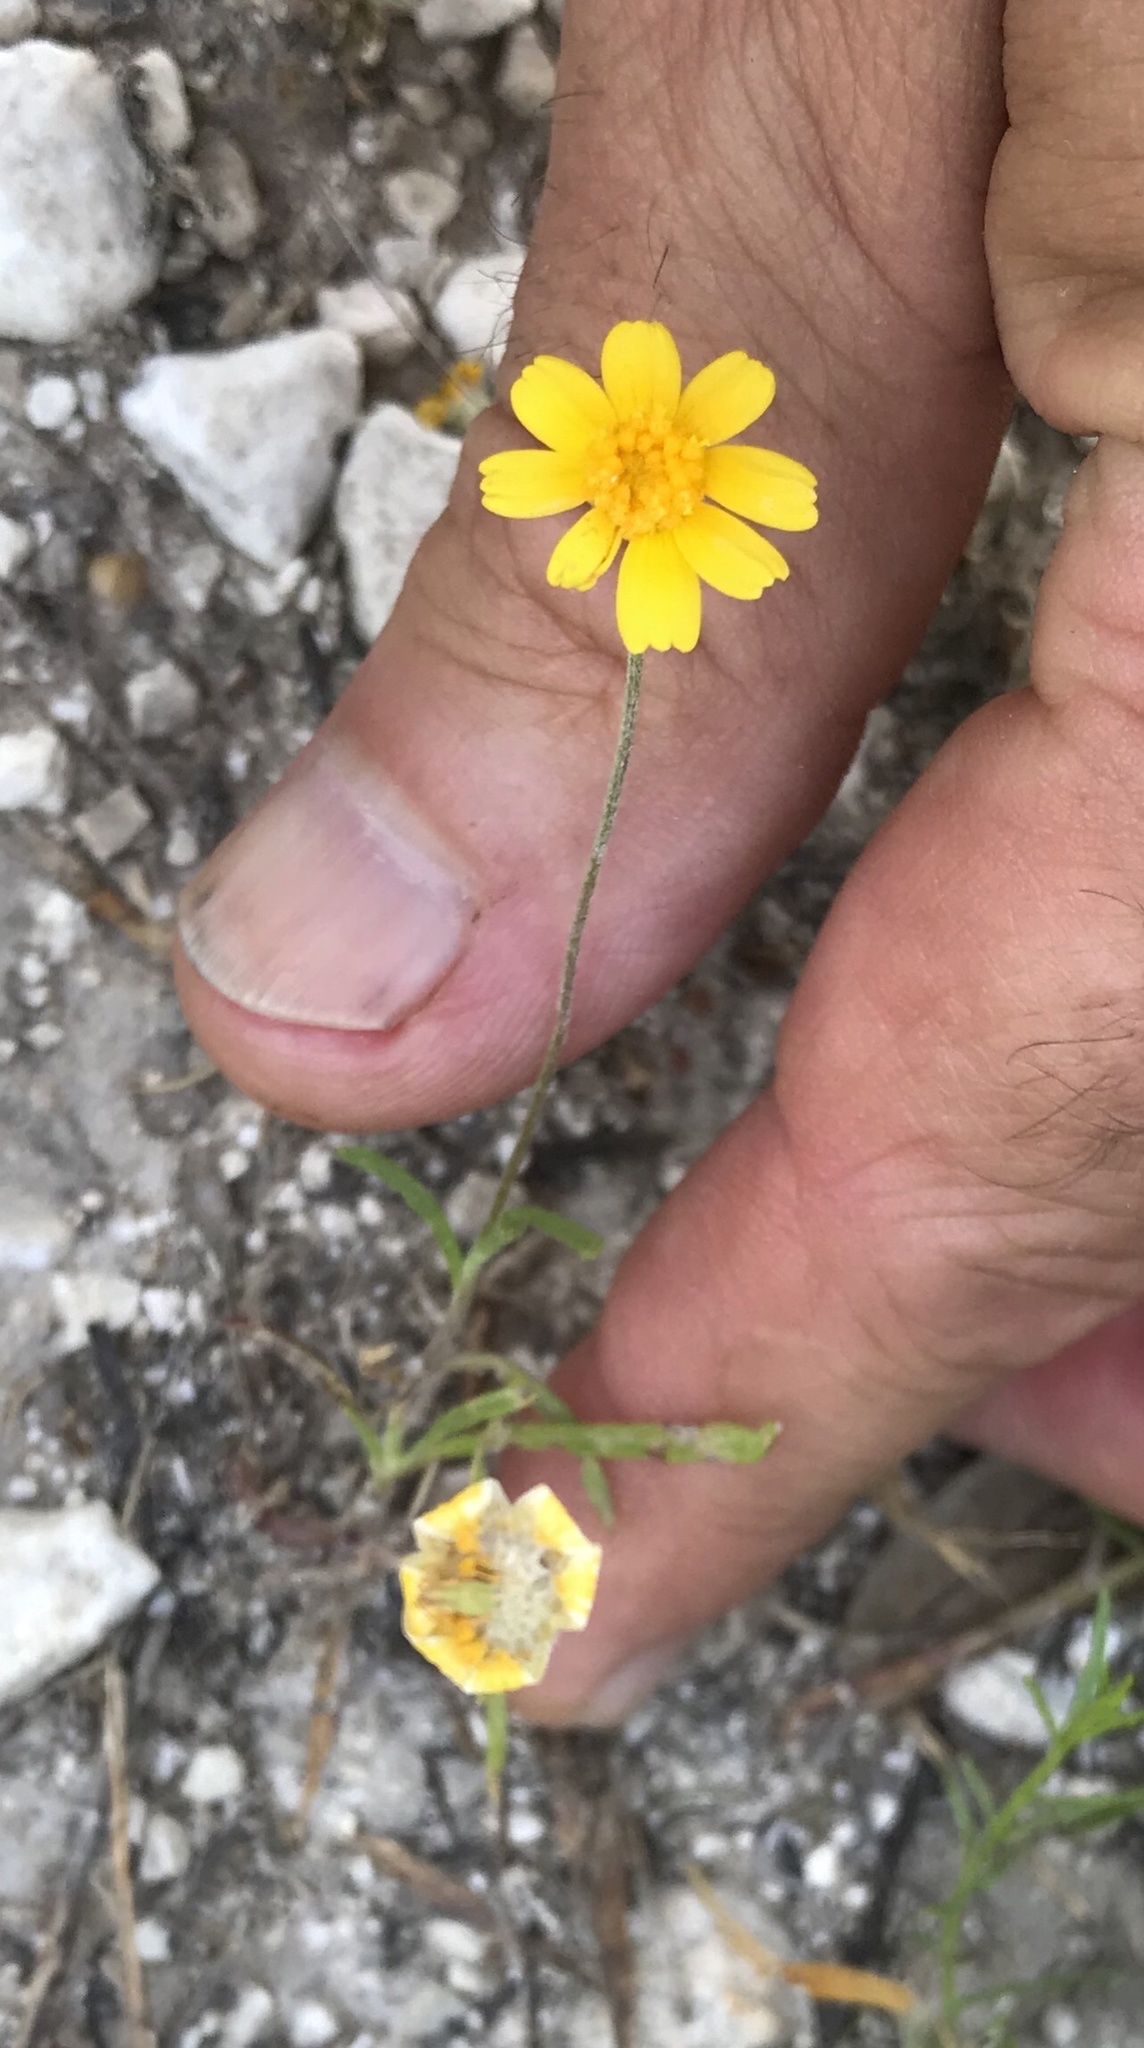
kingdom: Plantae
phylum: Tracheophyta
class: Magnoliopsida
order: Asterales
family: Asteraceae
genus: Tetraneuris
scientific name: Tetraneuris linearifolia
